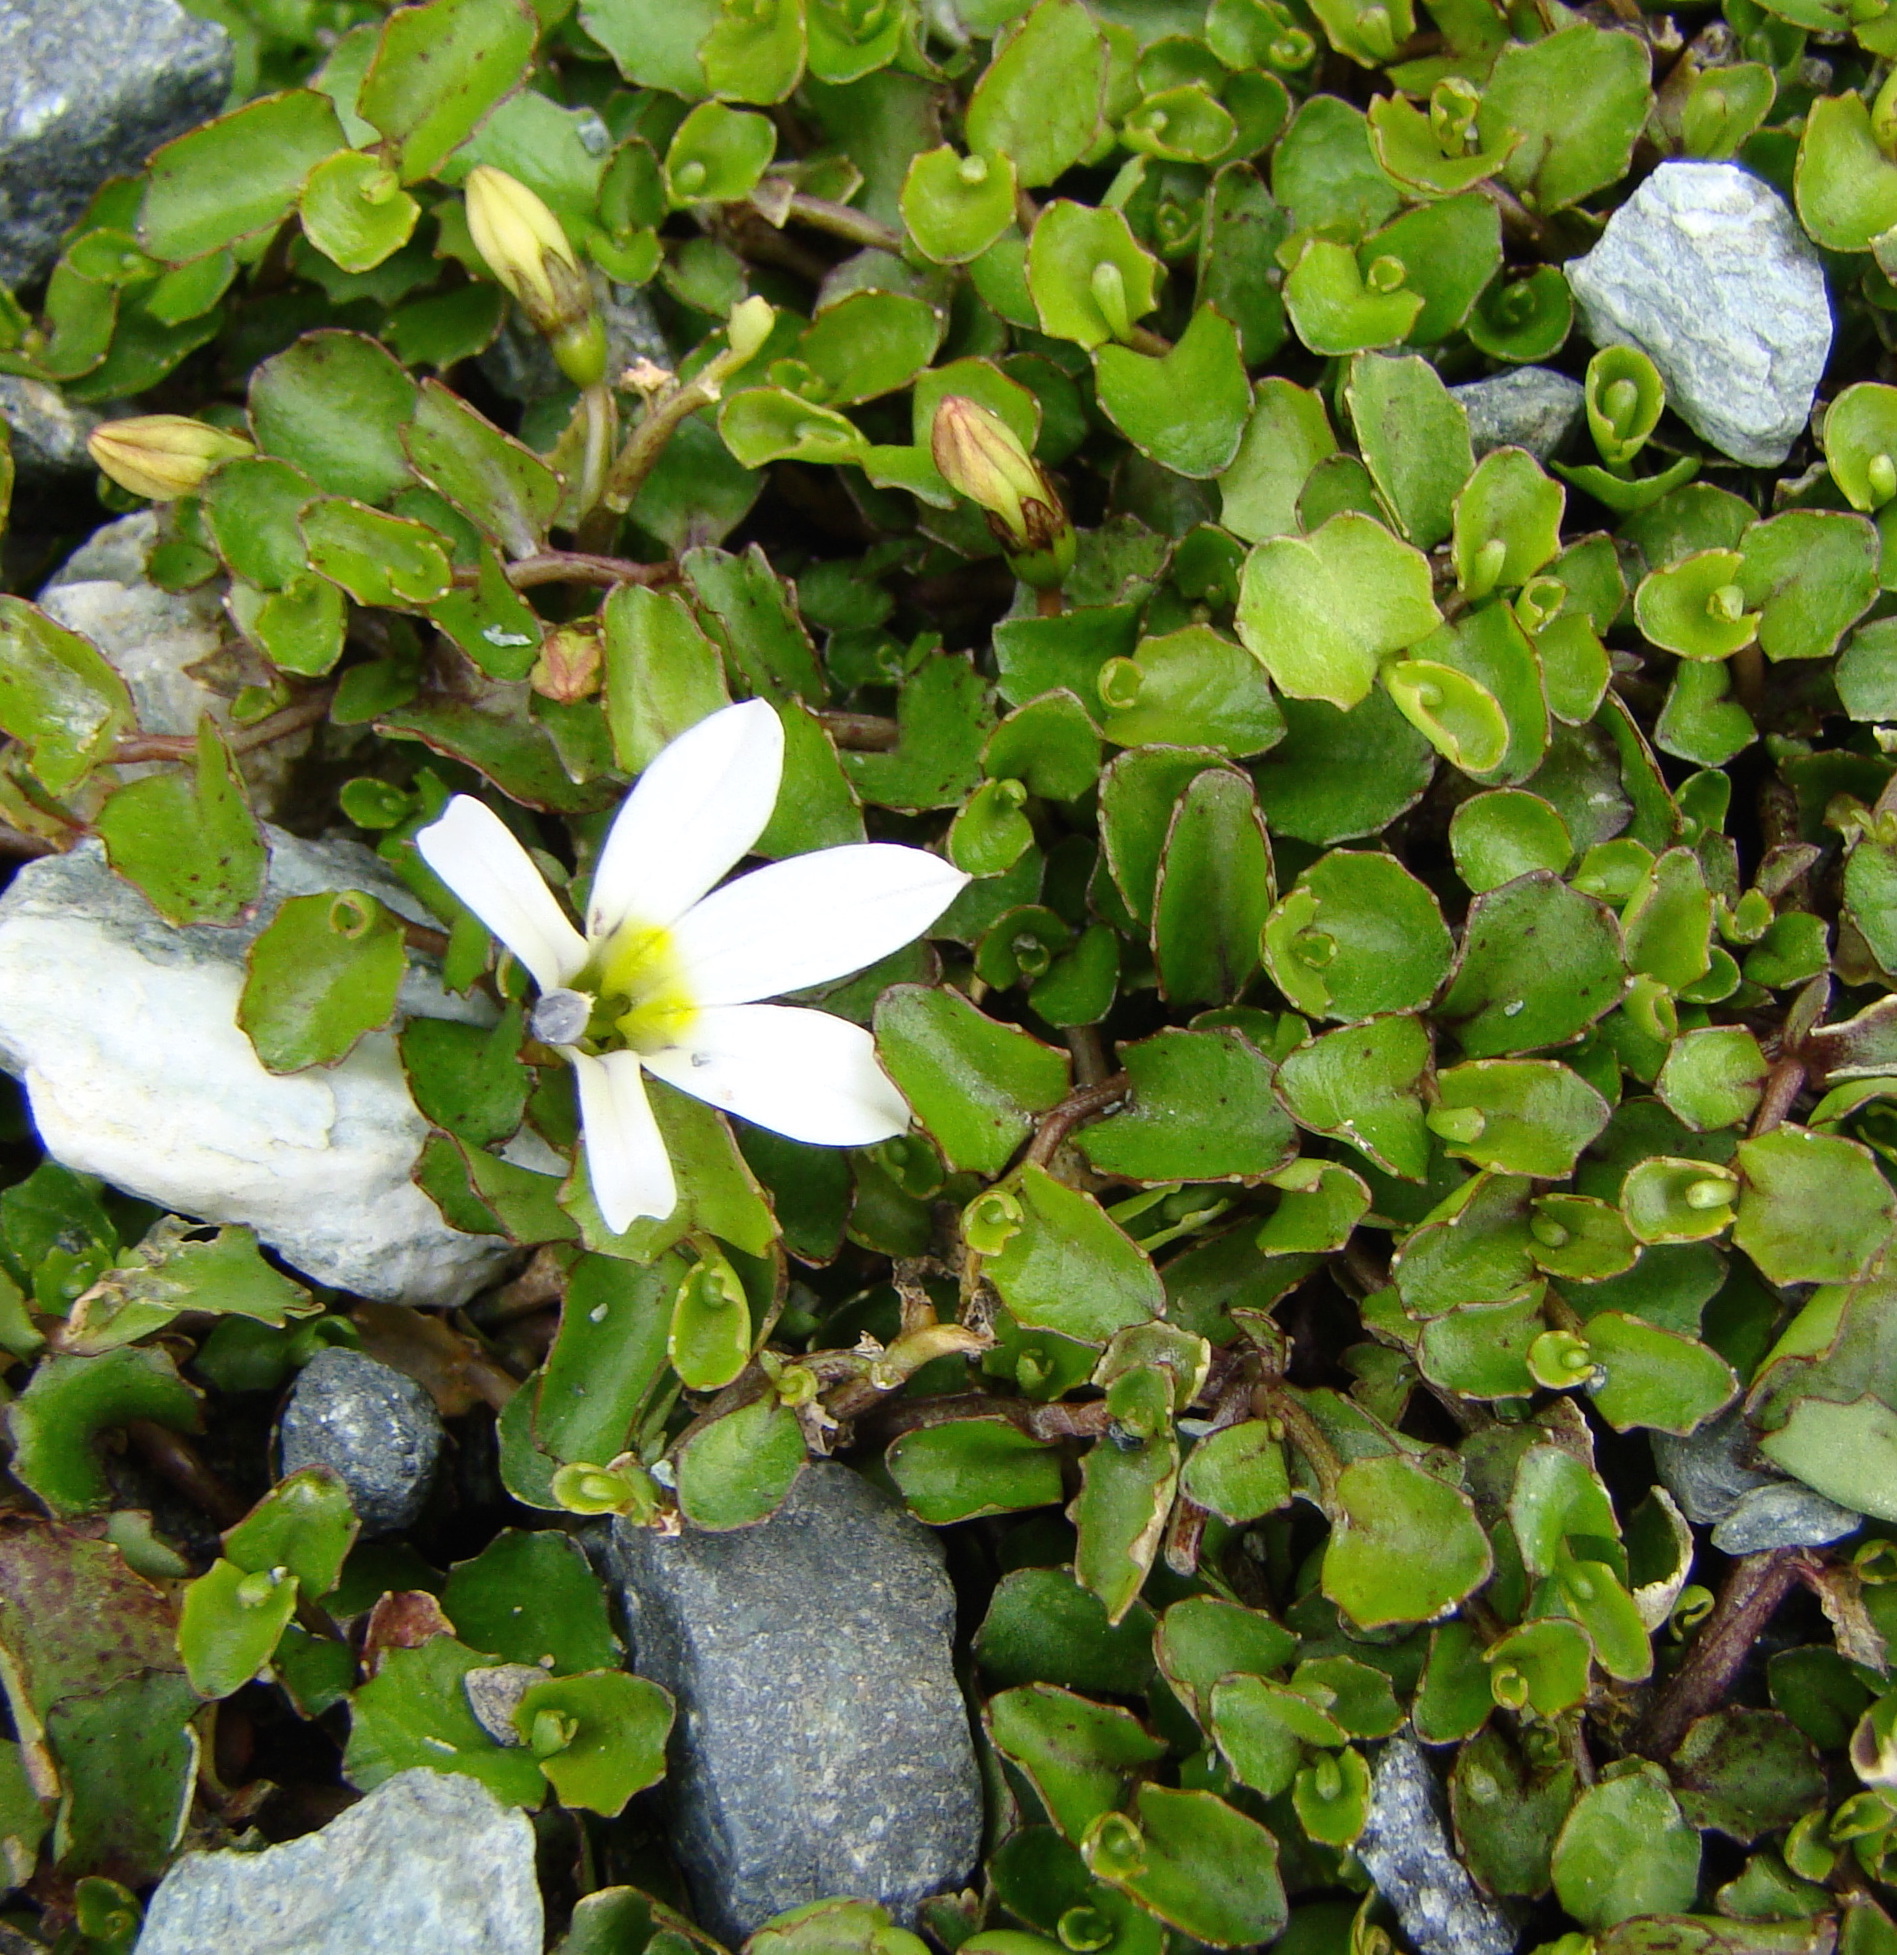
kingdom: Plantae
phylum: Tracheophyta
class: Magnoliopsida
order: Asterales
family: Campanulaceae
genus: Lobelia
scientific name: Lobelia angulata
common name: Lawn lobelia
